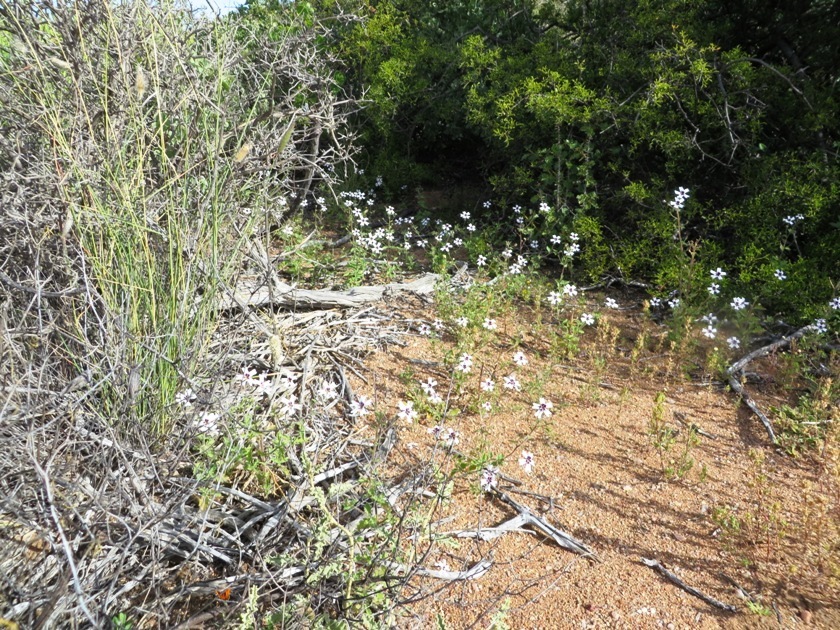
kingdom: Plantae
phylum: Tracheophyta
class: Magnoliopsida
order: Lamiales
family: Scrophulariaceae
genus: Jamesbrittenia
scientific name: Jamesbrittenia racemosa
